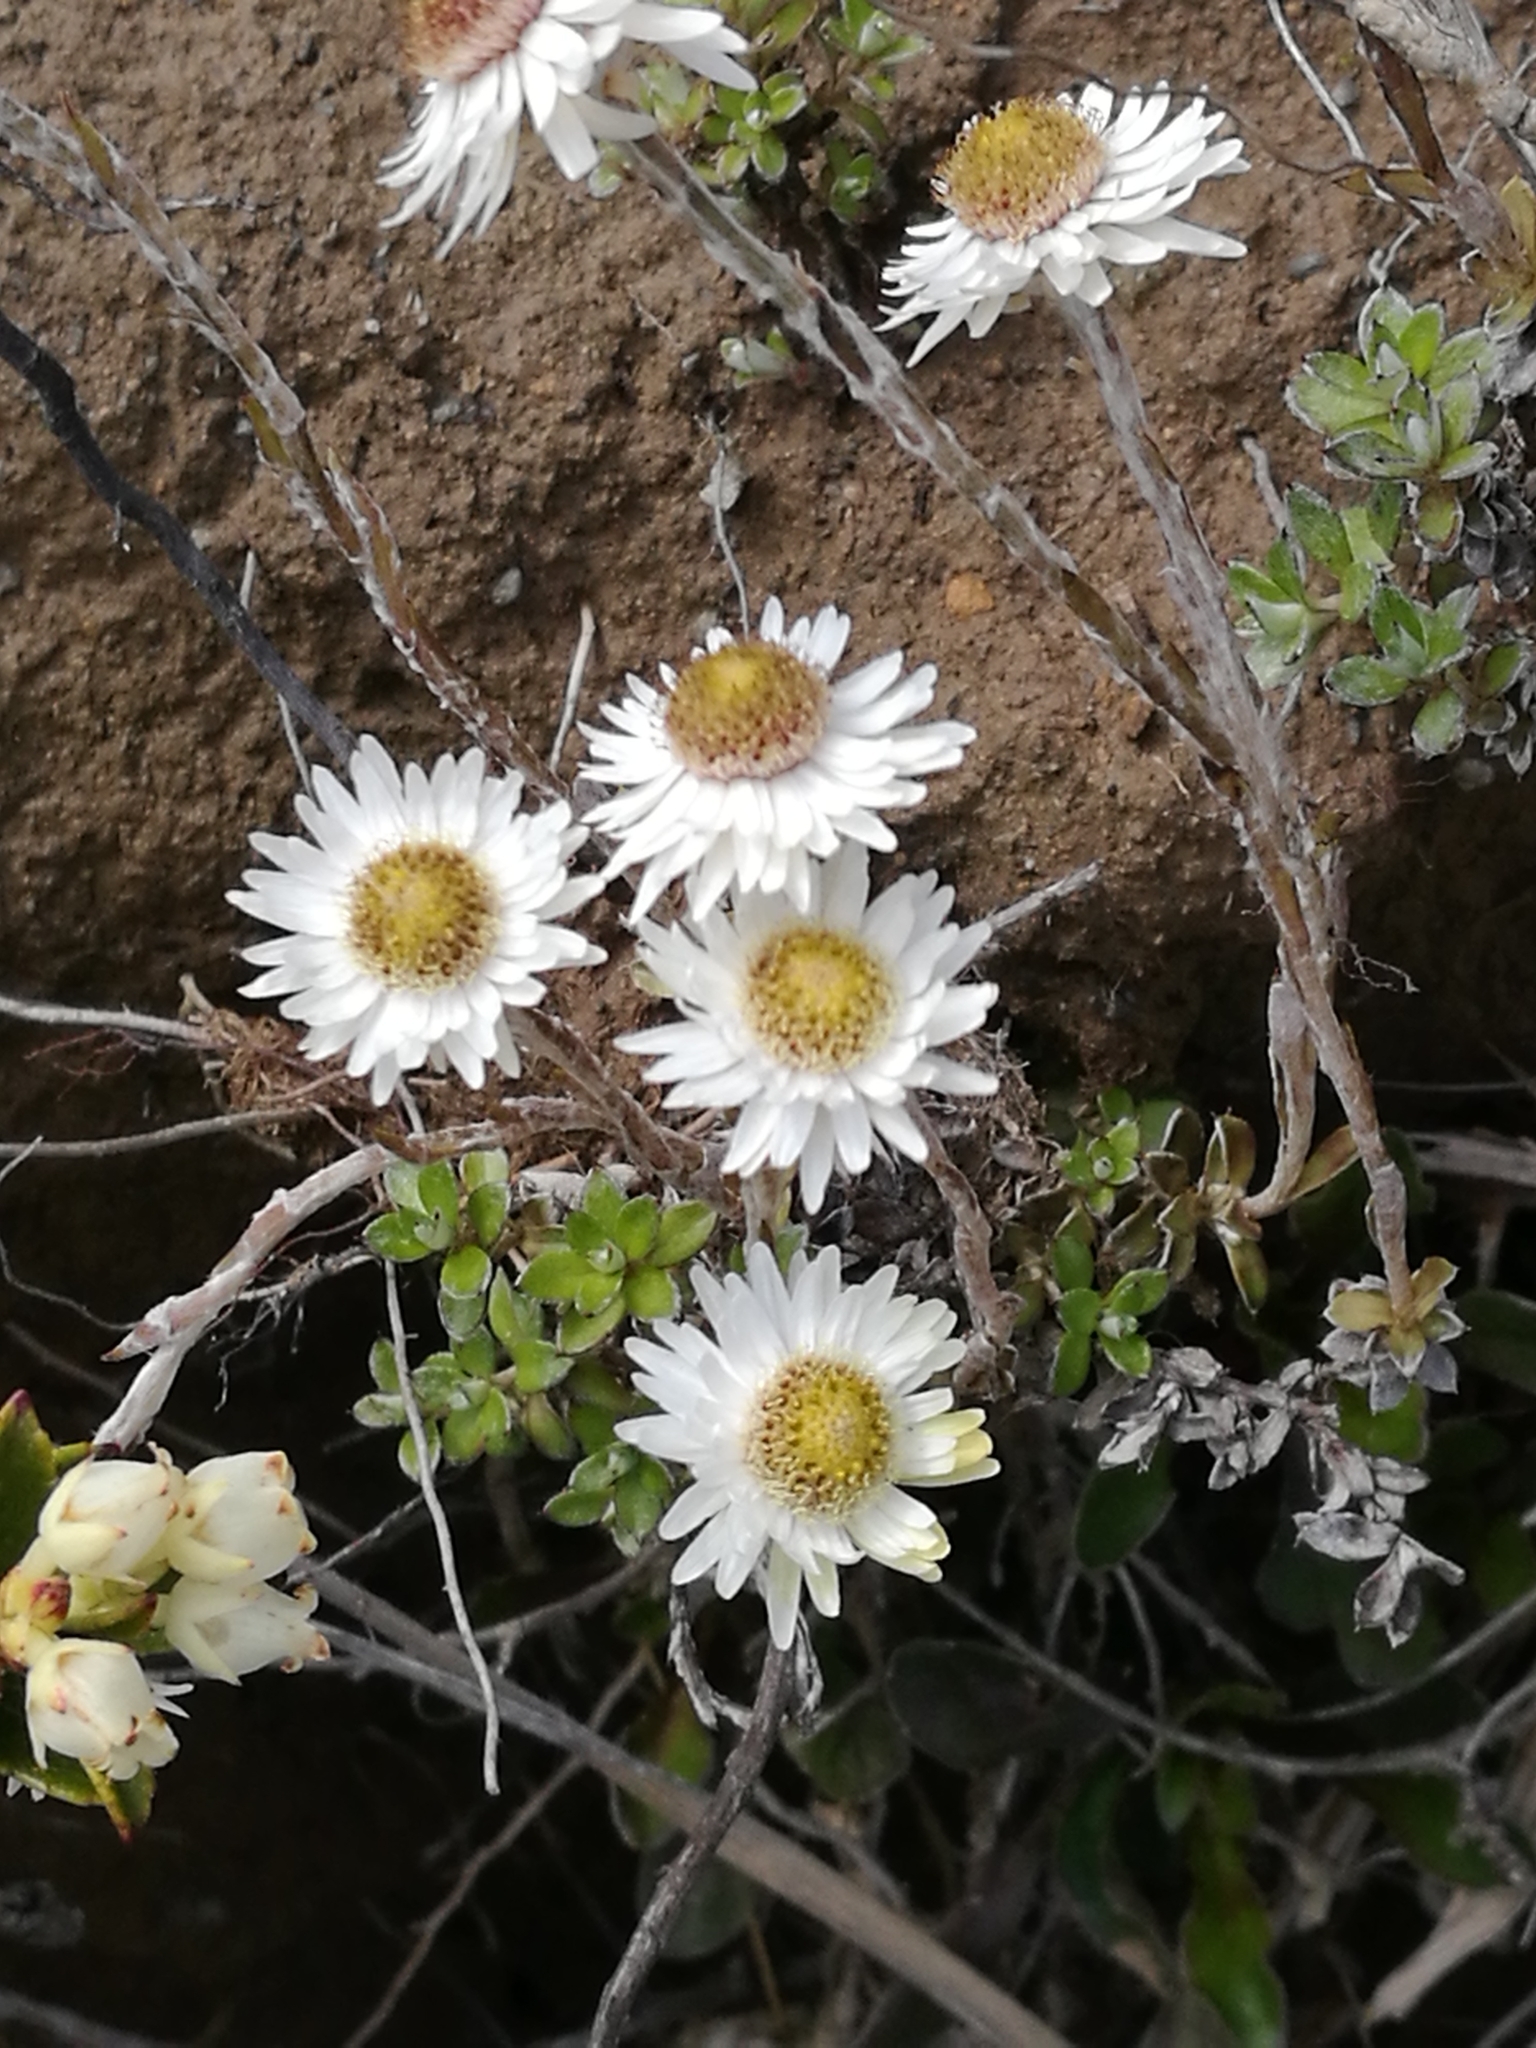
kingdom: Plantae
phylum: Tracheophyta
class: Magnoliopsida
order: Asterales
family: Asteraceae
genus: Anaphalioides
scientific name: Anaphalioides bellidioides
